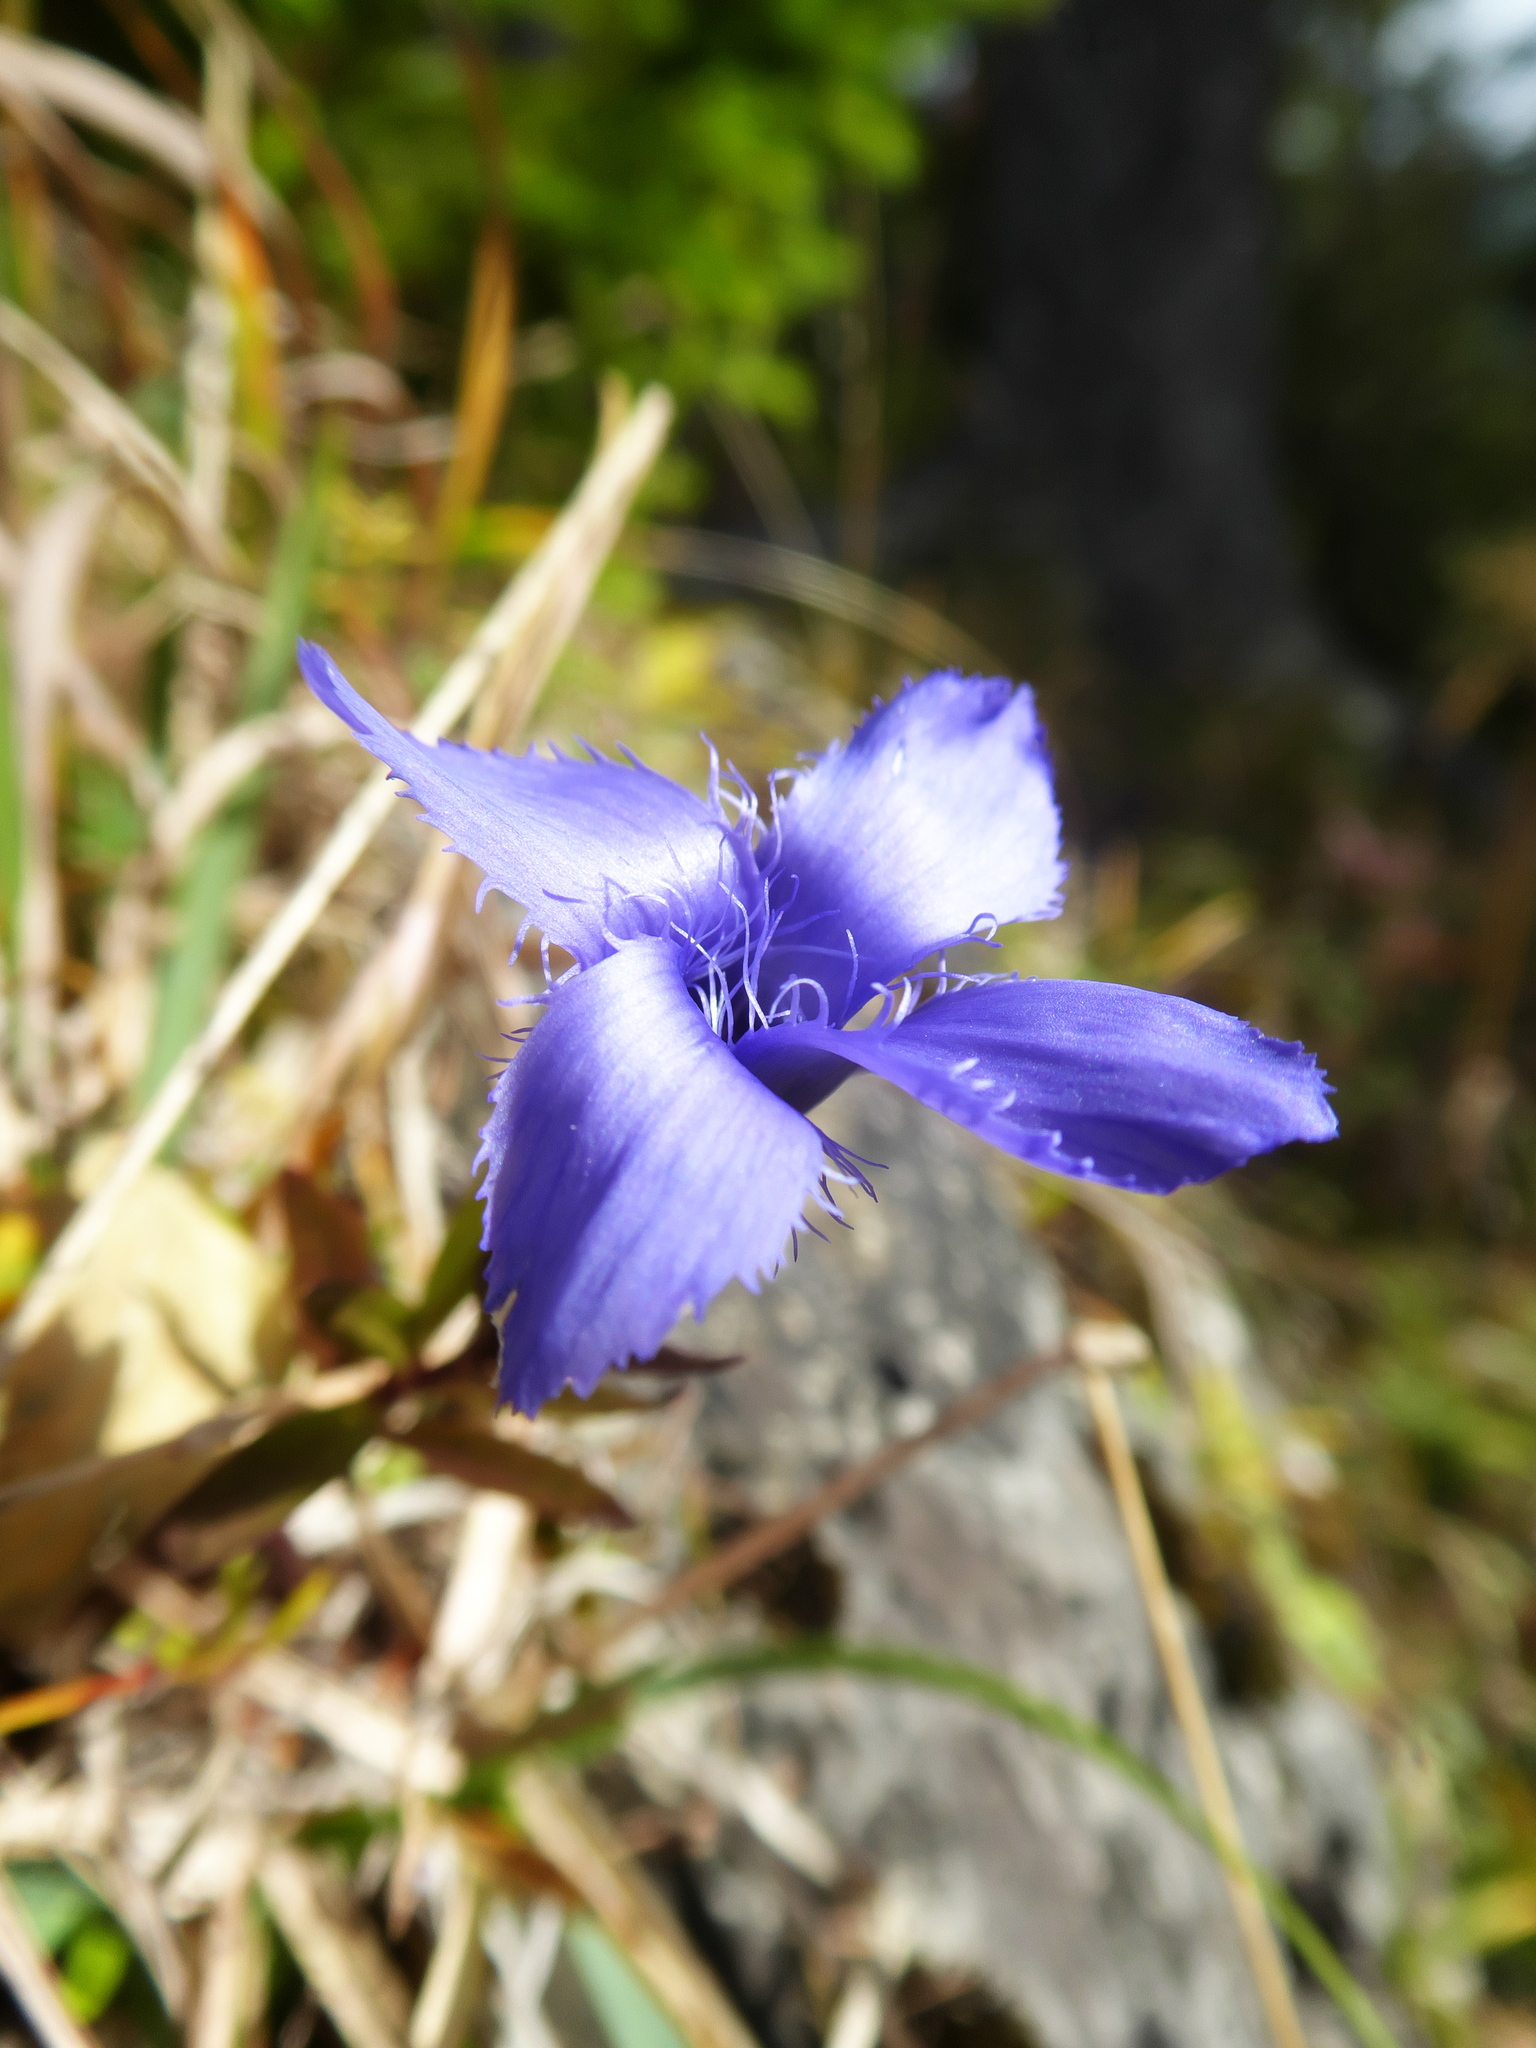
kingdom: Plantae
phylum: Tracheophyta
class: Magnoliopsida
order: Gentianales
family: Gentianaceae
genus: Gentianopsis
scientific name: Gentianopsis ciliata
